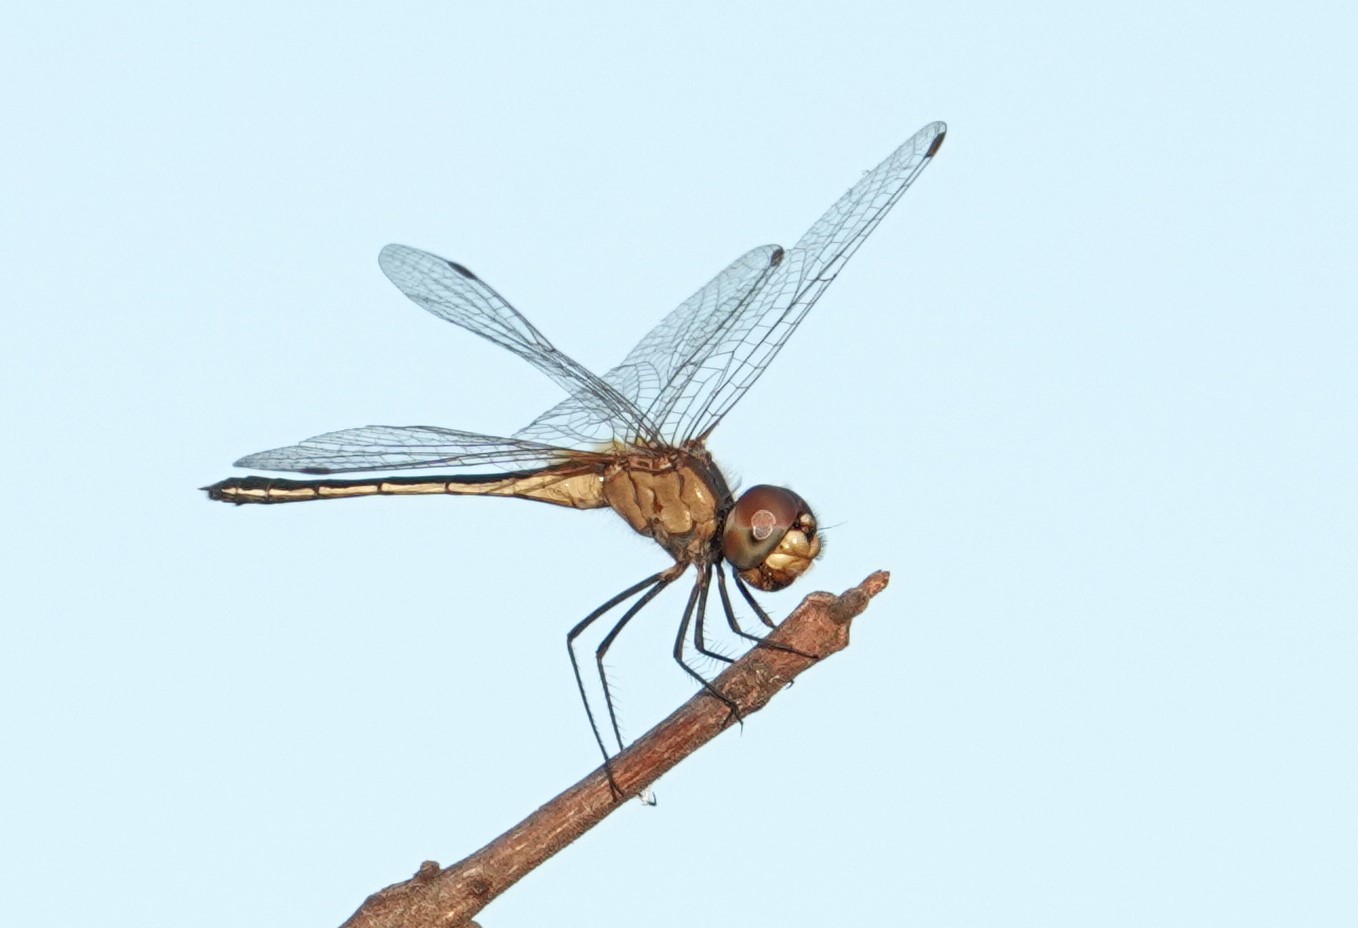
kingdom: Animalia
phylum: Arthropoda
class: Insecta
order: Odonata
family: Libellulidae
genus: Idiataphe
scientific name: Idiataphe longipes
